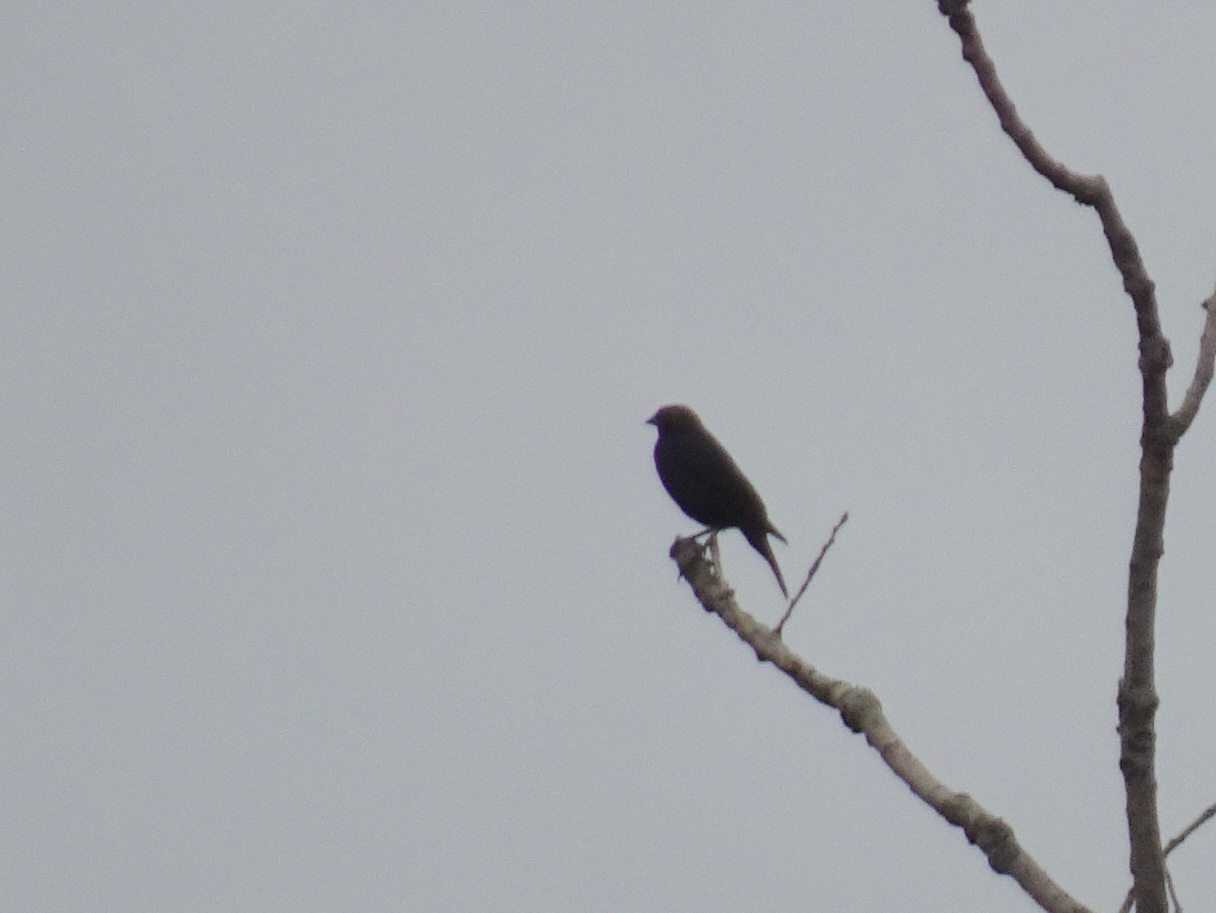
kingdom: Animalia
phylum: Chordata
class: Aves
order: Passeriformes
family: Icteridae
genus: Molothrus
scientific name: Molothrus ater
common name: Brown-headed cowbird
